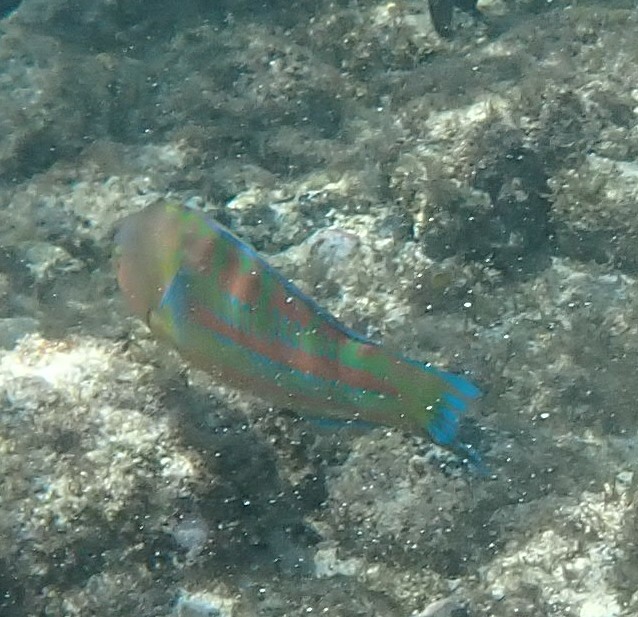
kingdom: Animalia
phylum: Chordata
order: Perciformes
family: Labridae
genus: Thalassoma
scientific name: Thalassoma trilobatum
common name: Christmas wrasse
